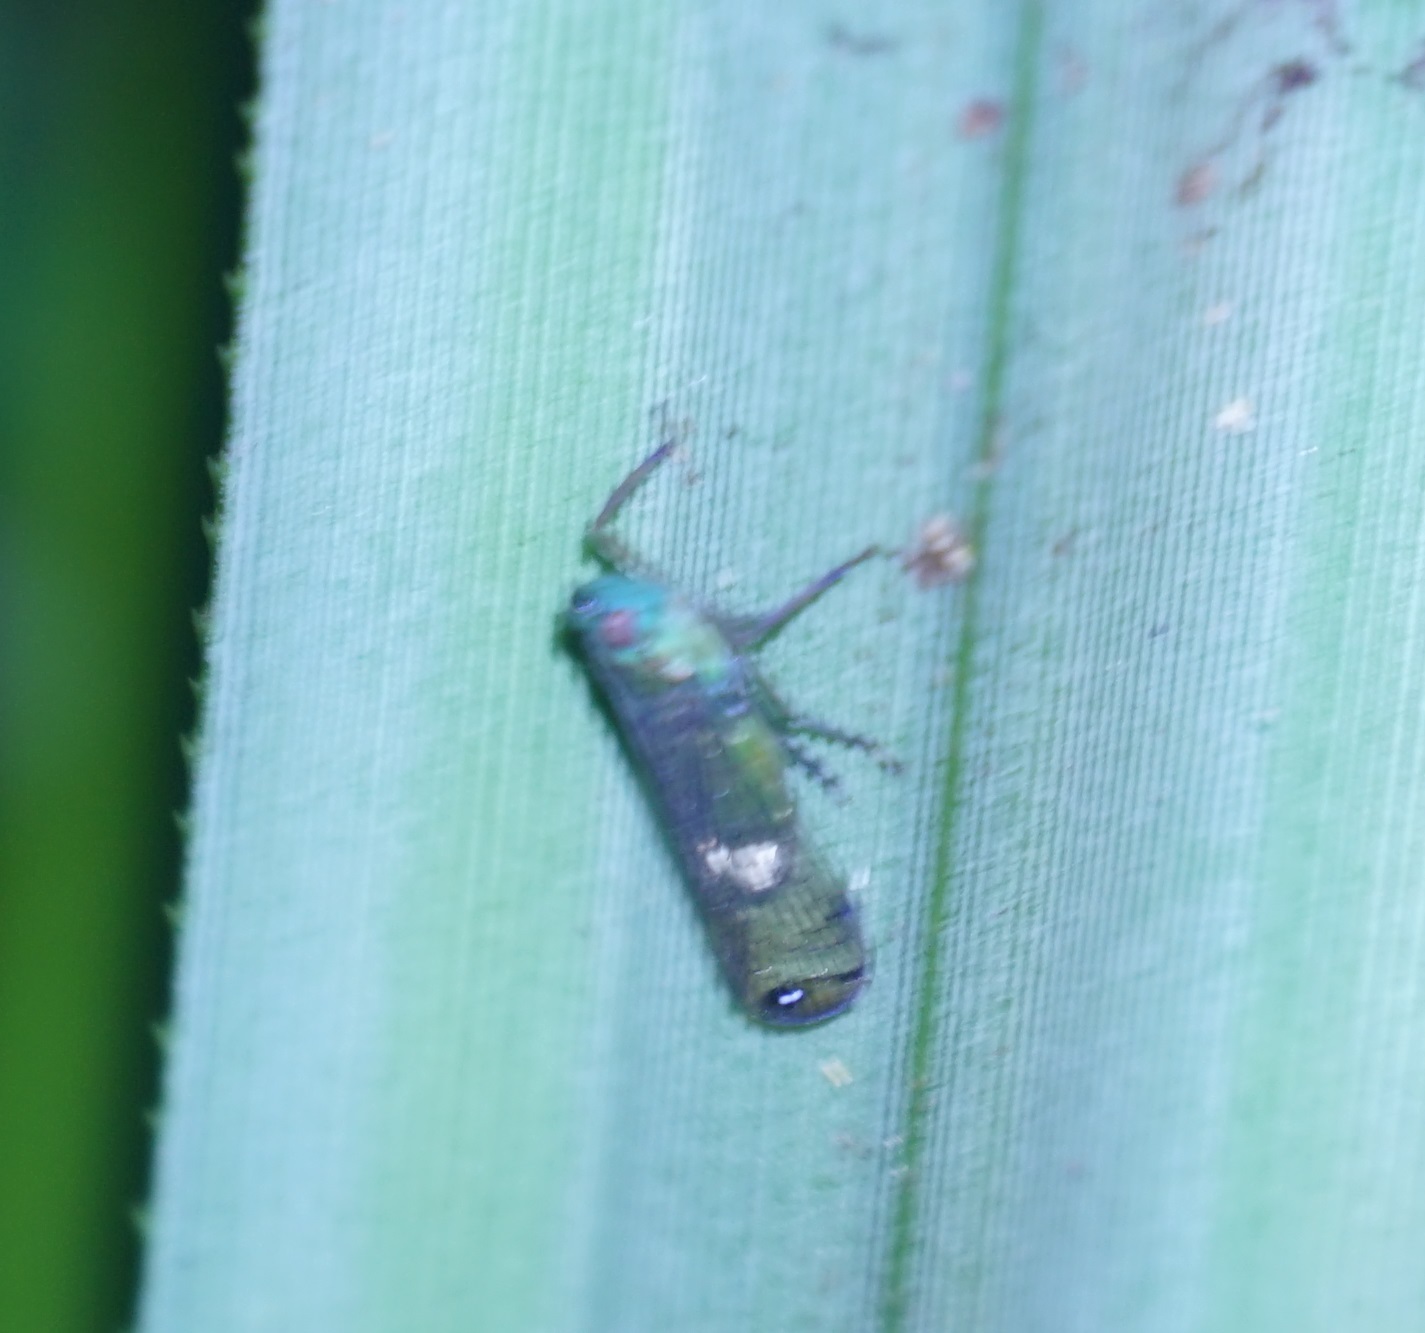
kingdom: Animalia
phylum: Arthropoda
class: Insecta
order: Hemiptera
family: Lophopidae
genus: Magia
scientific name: Magia subocellata
